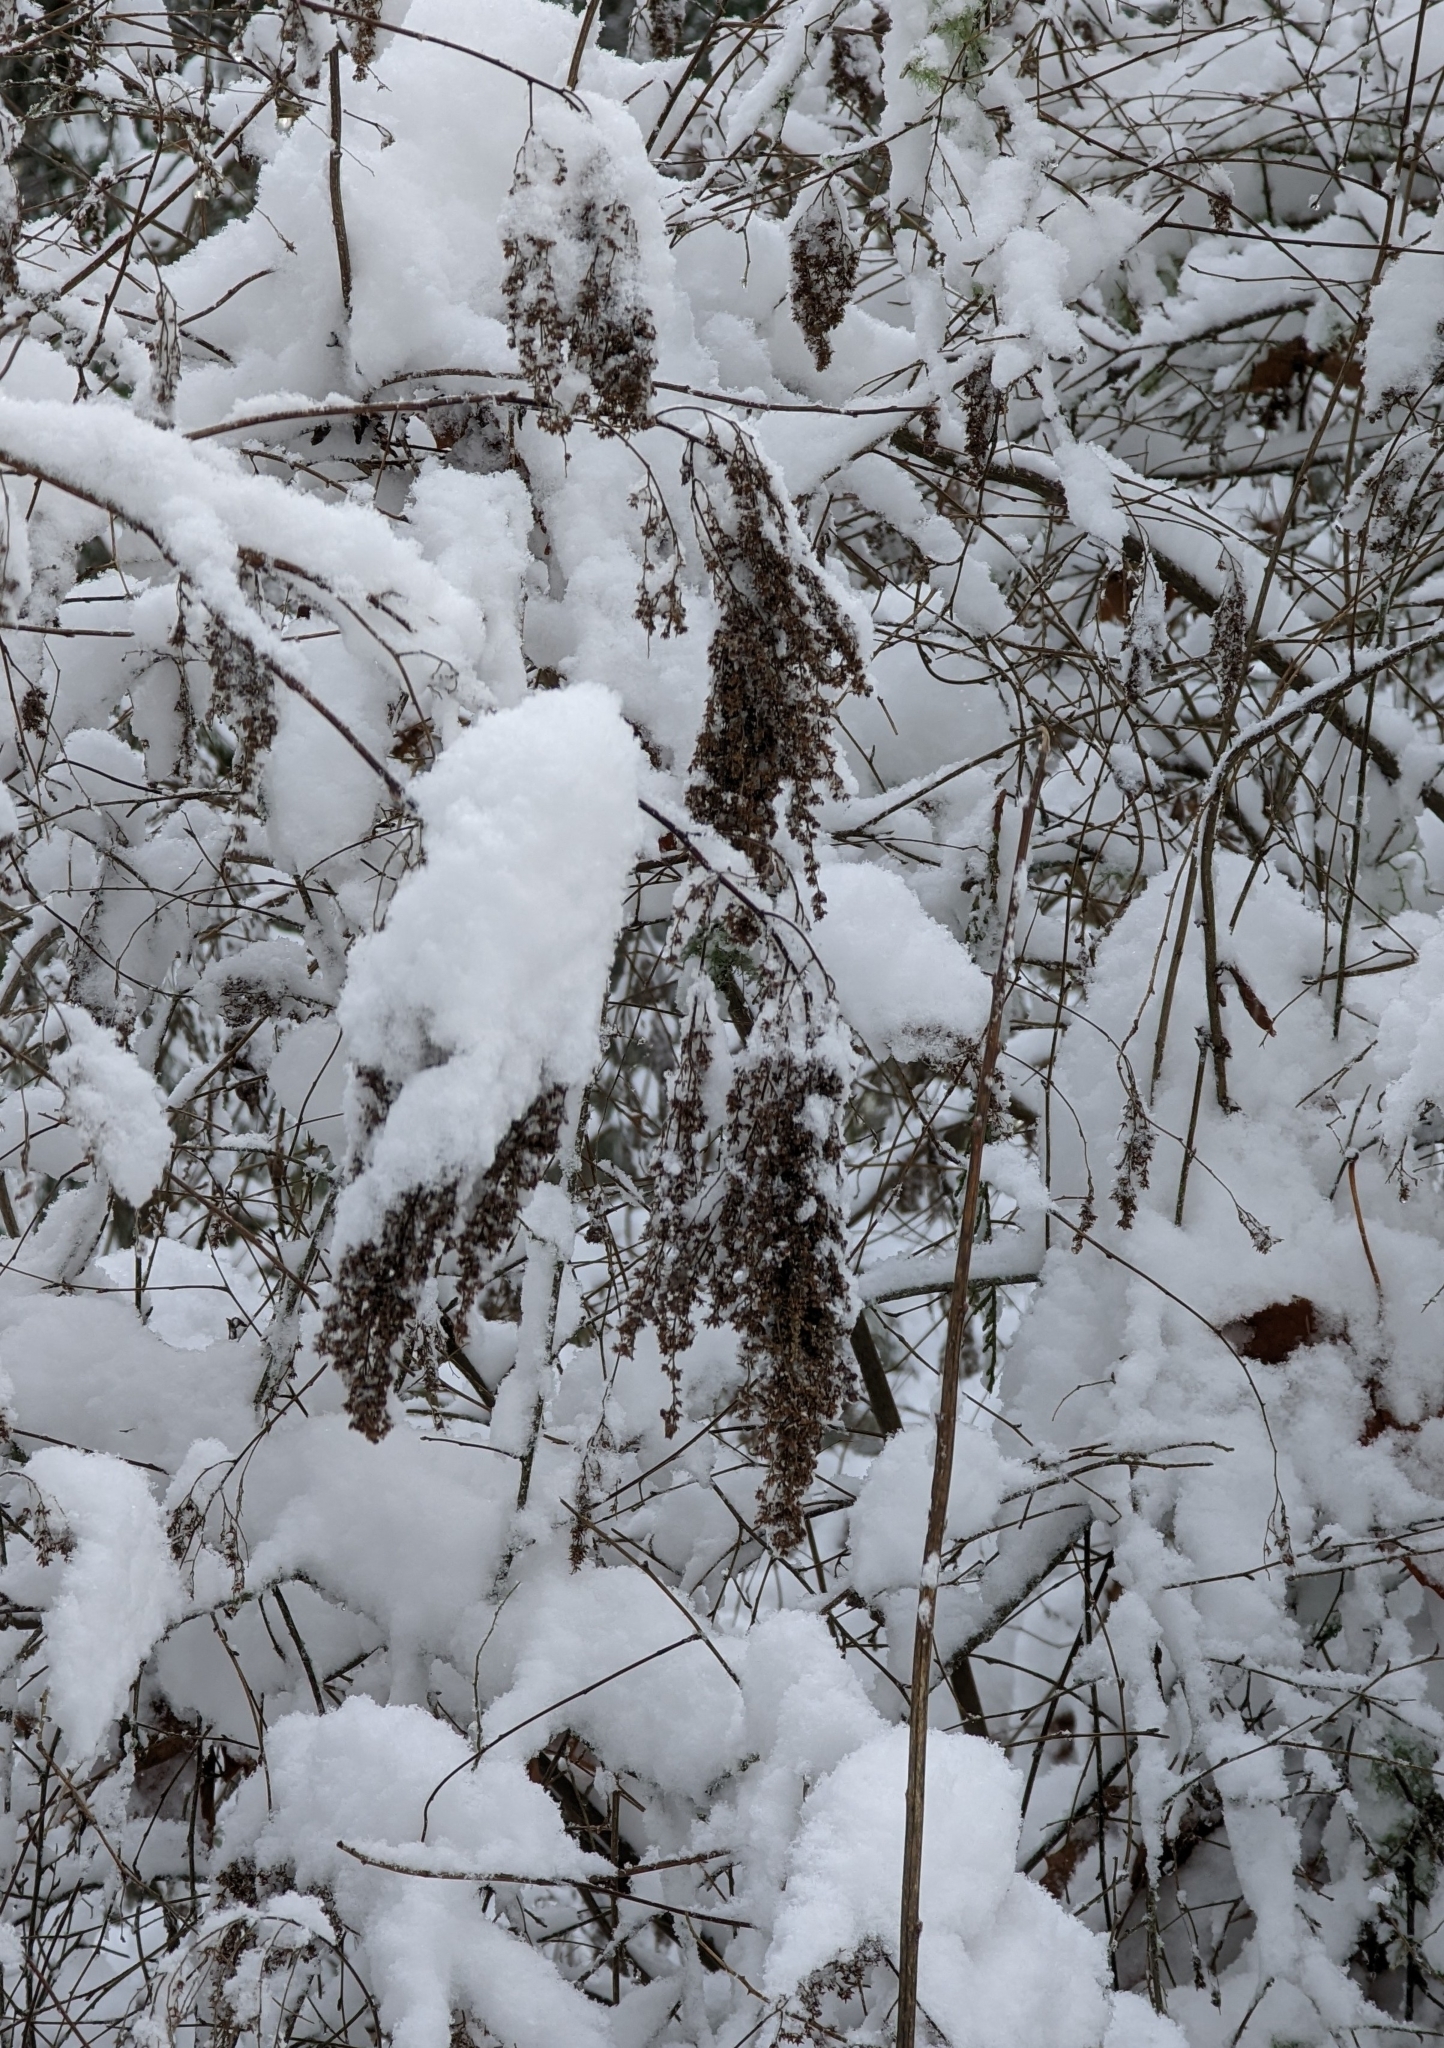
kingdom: Plantae
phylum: Tracheophyta
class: Magnoliopsida
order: Rosales
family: Rosaceae
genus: Holodiscus
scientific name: Holodiscus discolor
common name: Oceanspray
